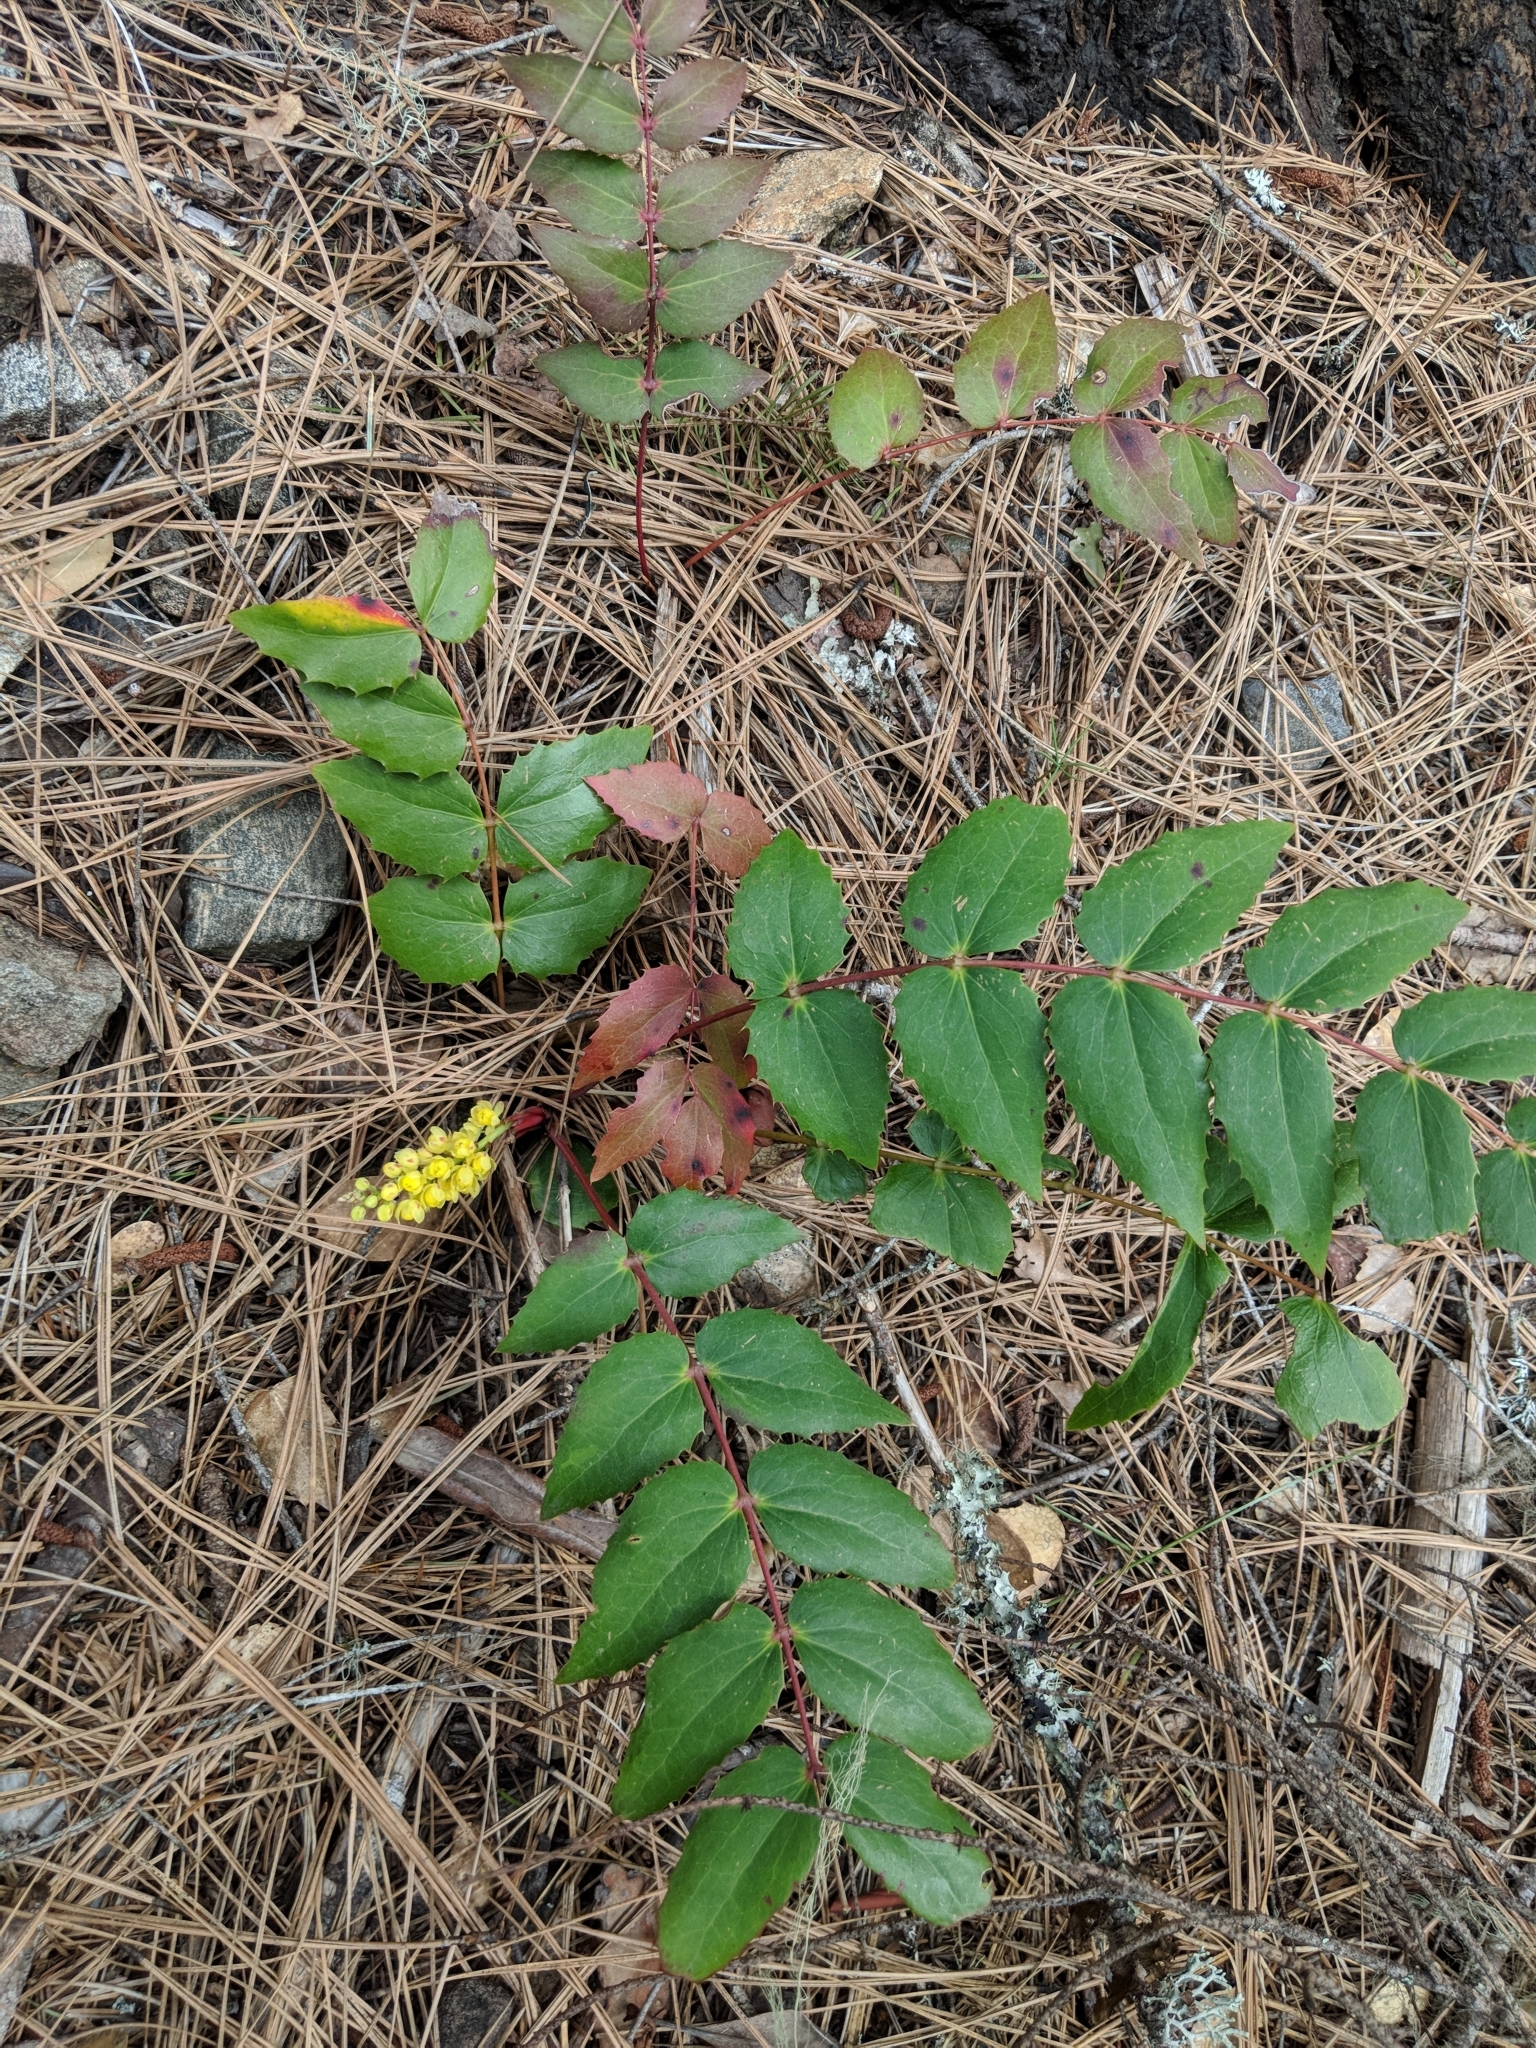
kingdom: Plantae
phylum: Tracheophyta
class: Magnoliopsida
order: Ranunculales
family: Berberidaceae
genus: Mahonia
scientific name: Mahonia nervosa
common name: Cascade oregon-grape
